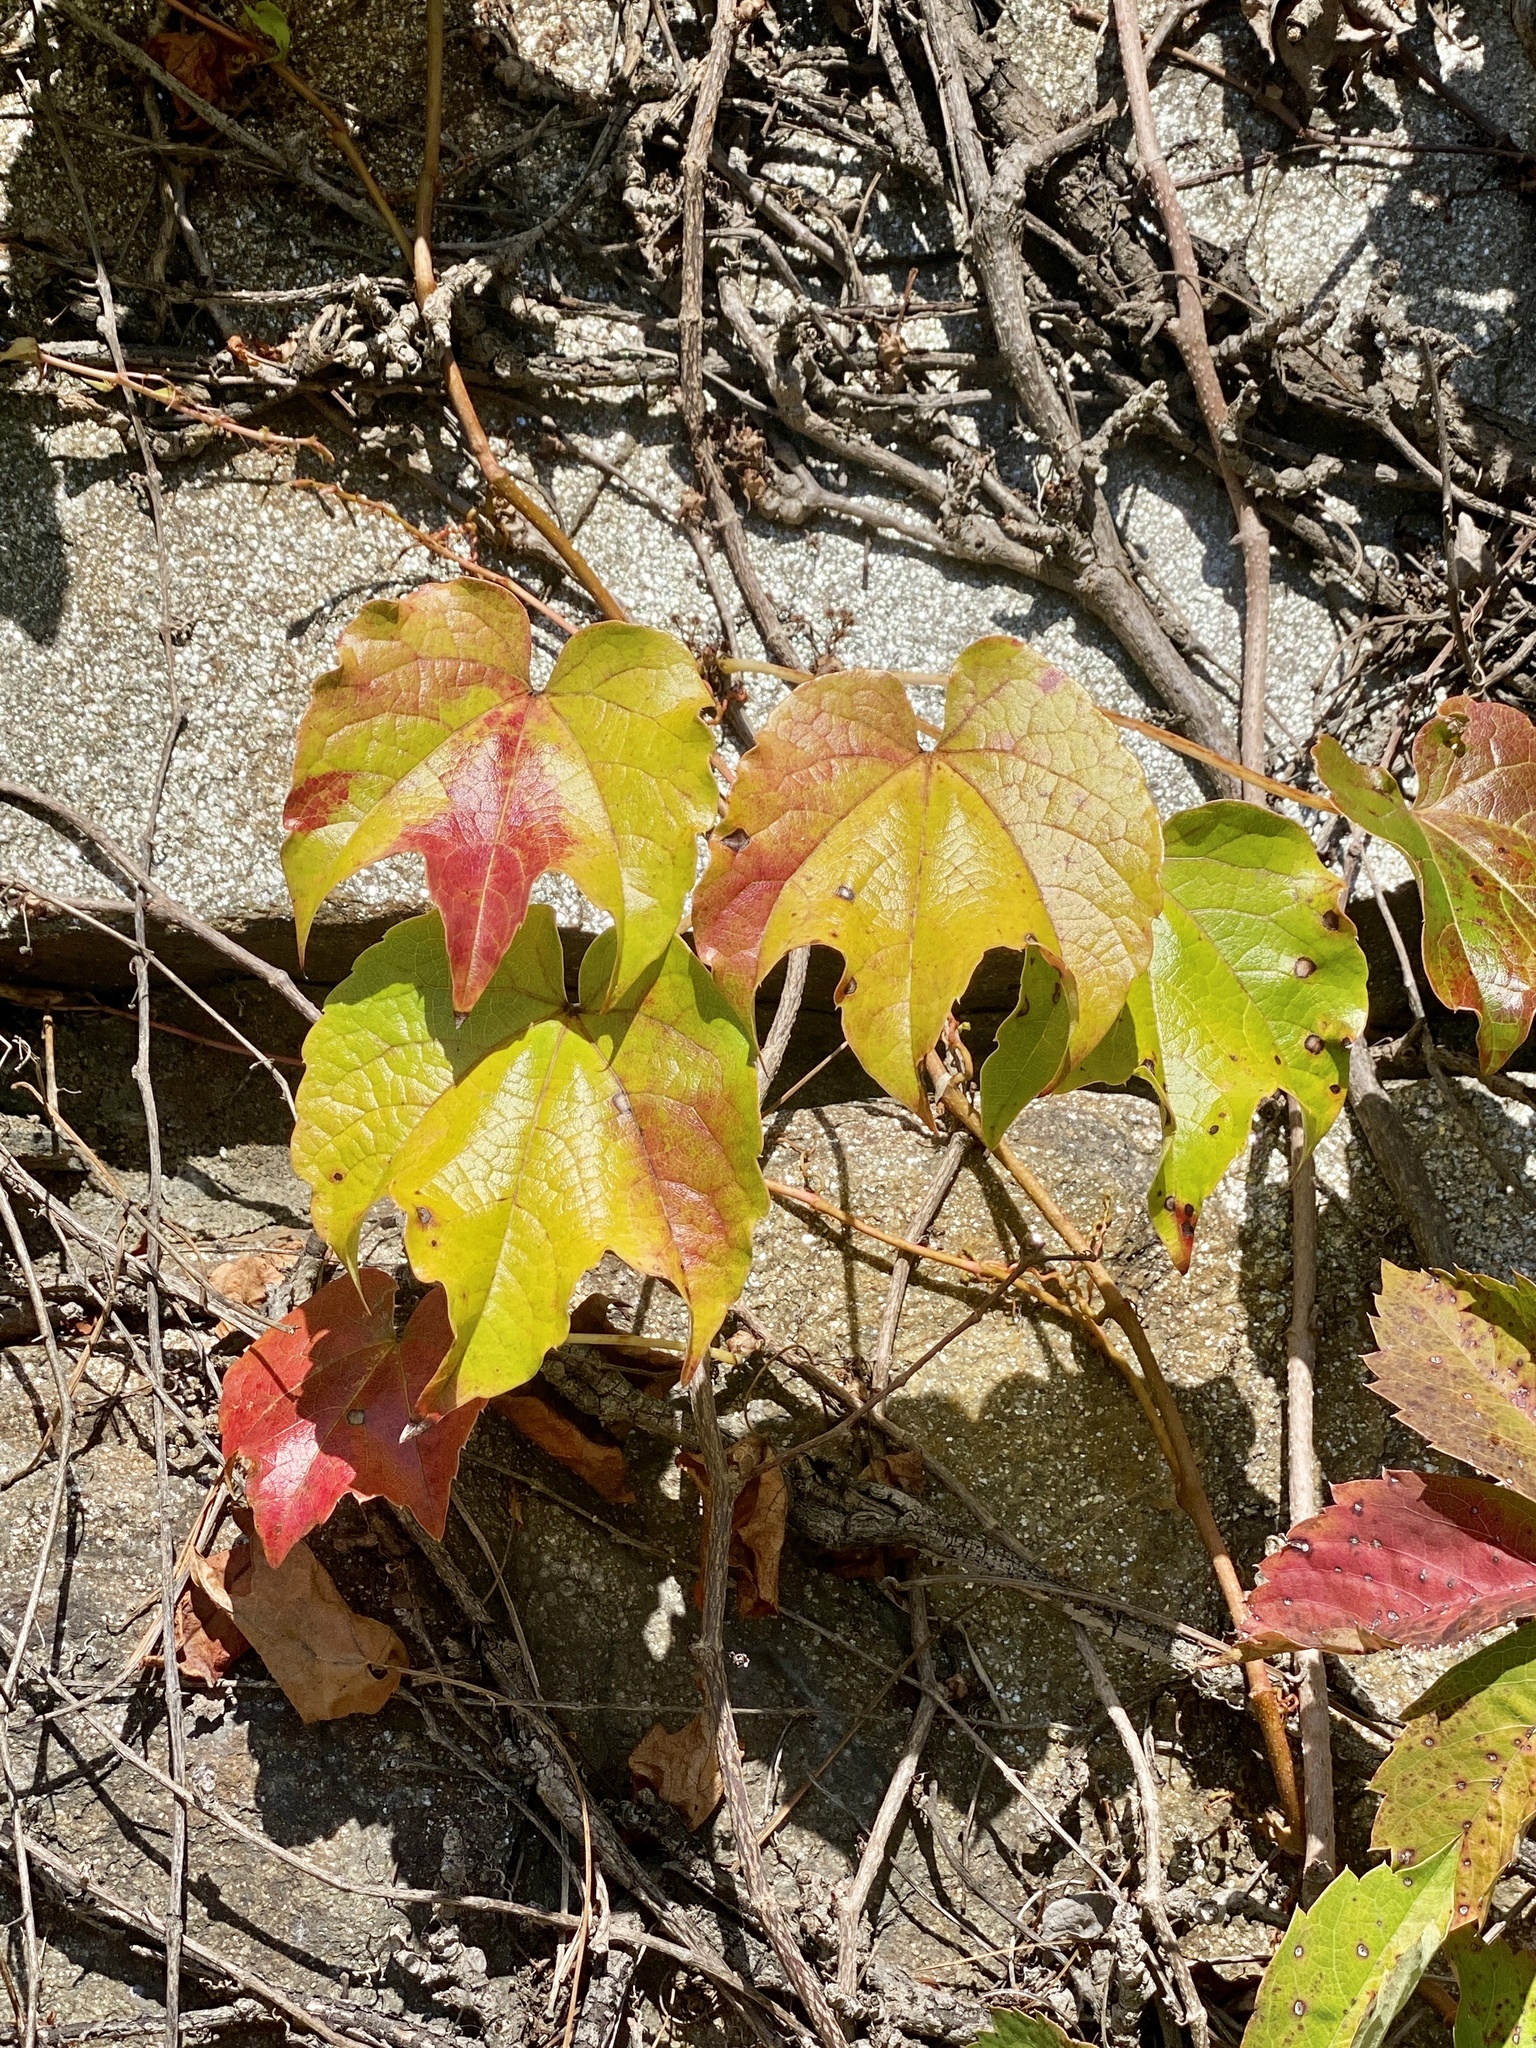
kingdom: Plantae
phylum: Tracheophyta
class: Magnoliopsida
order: Vitales
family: Vitaceae
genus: Parthenocissus
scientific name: Parthenocissus tricuspidata
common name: Boston ivy
